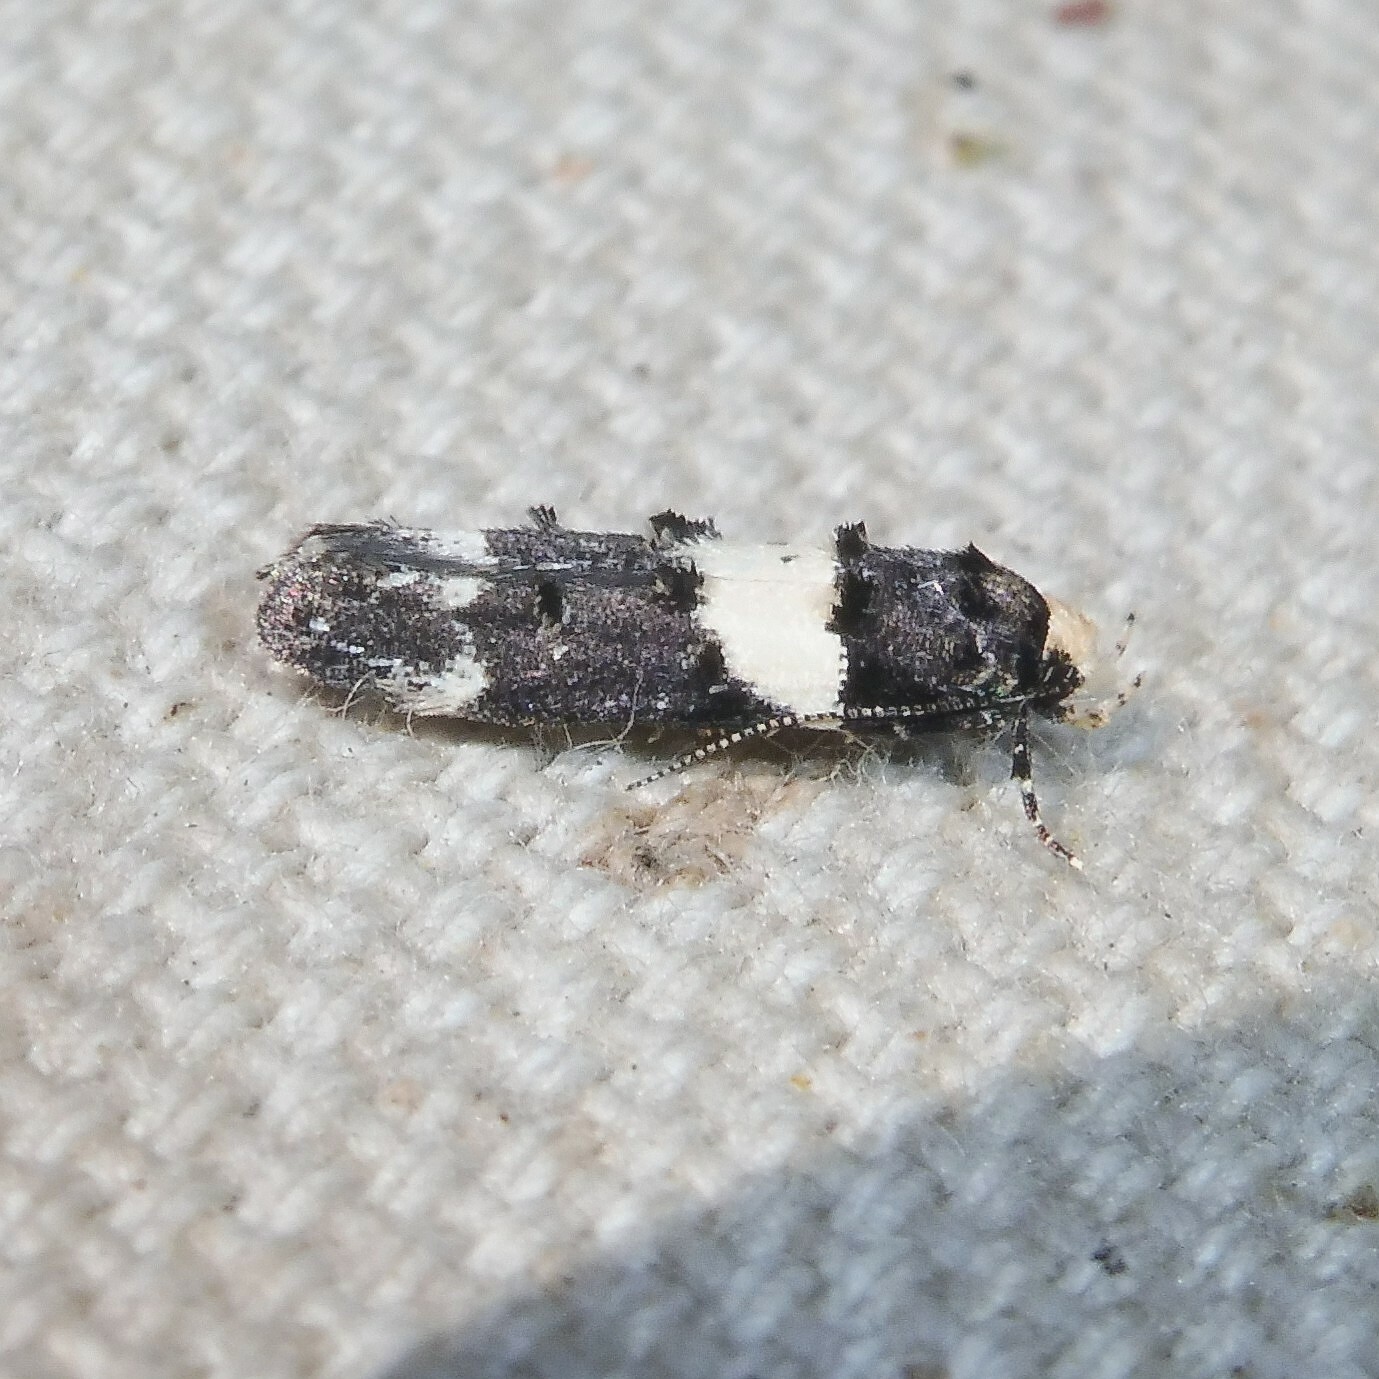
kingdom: Animalia
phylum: Arthropoda
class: Insecta
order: Lepidoptera
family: Gelechiidae
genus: Recurvaria
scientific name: Recurvaria leucatella
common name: White-barred groundling
